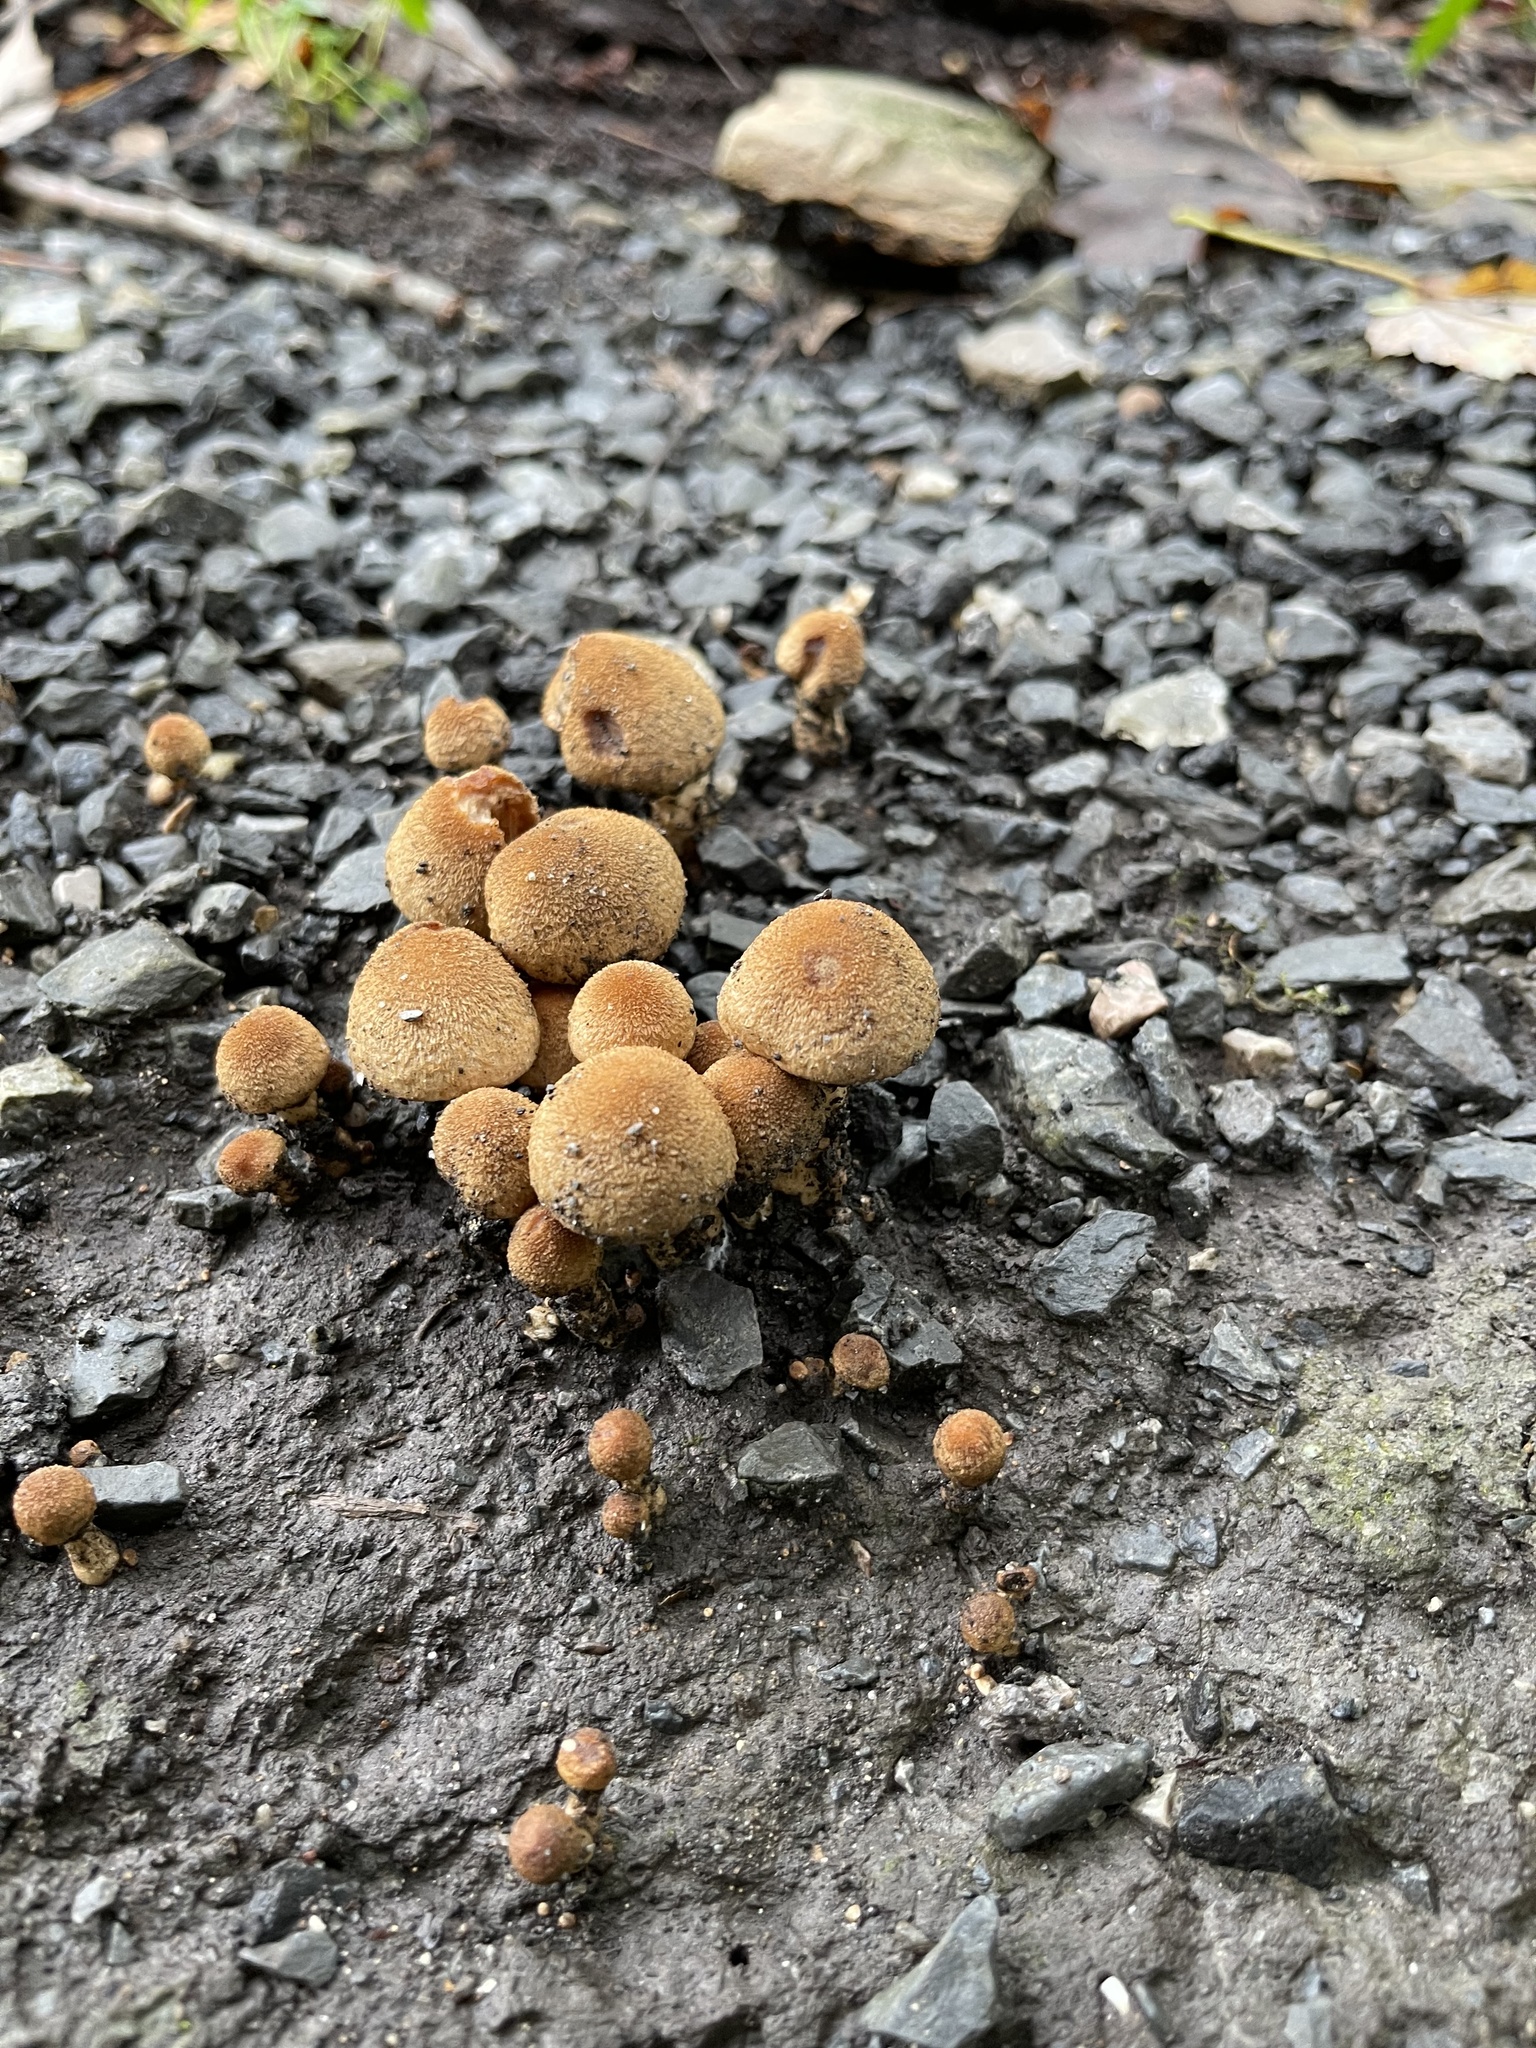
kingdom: Fungi
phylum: Basidiomycota
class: Agaricomycetes
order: Agaricales
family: Psathyrellaceae
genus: Lacrymaria
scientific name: Lacrymaria lacrymabunda
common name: Weeping widow
